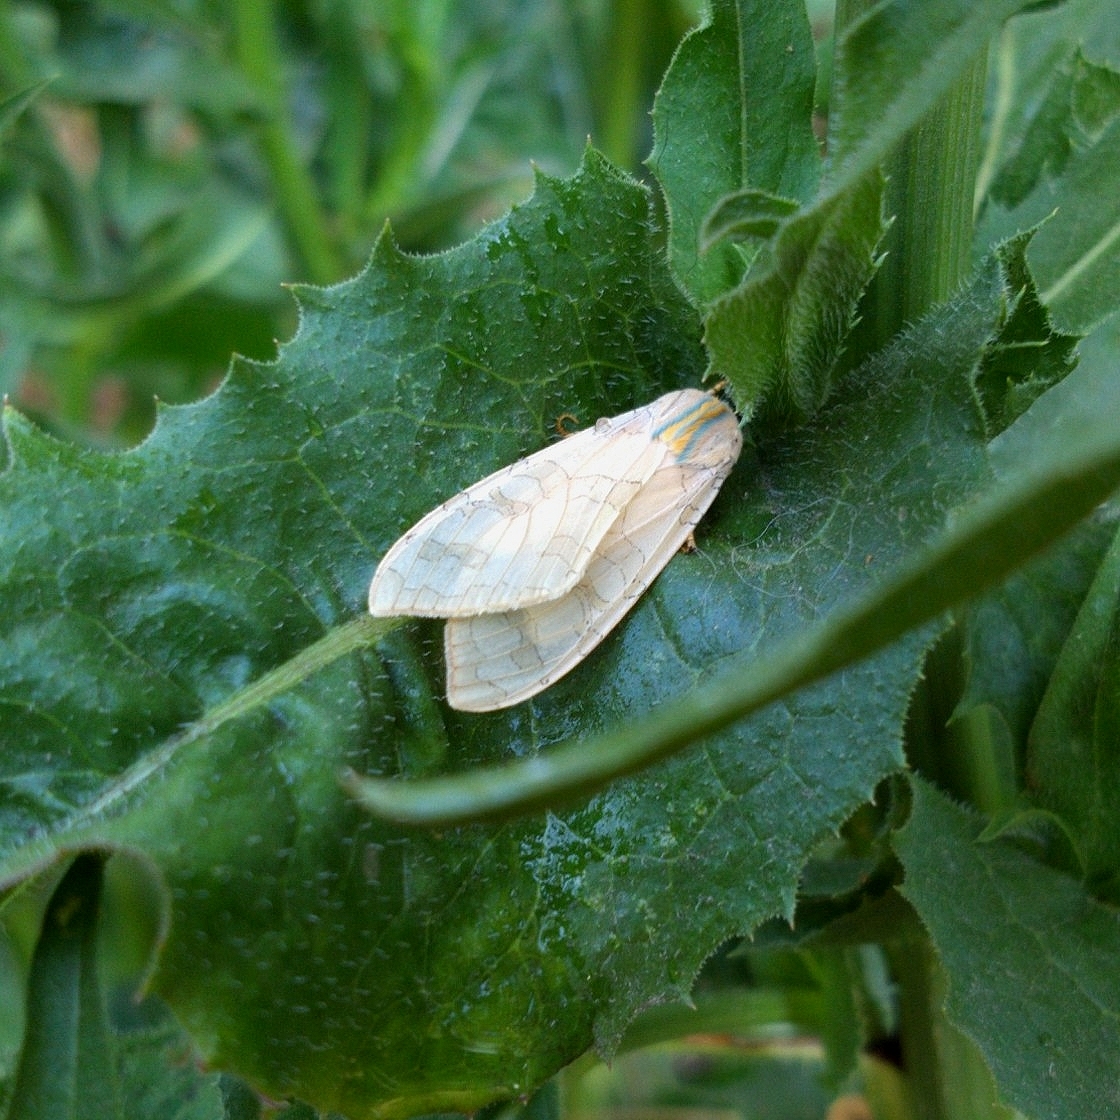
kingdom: Animalia
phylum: Arthropoda
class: Insecta
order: Lepidoptera
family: Erebidae
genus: Halysidota
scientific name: Halysidota tessellaris
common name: Banded tussock moth
